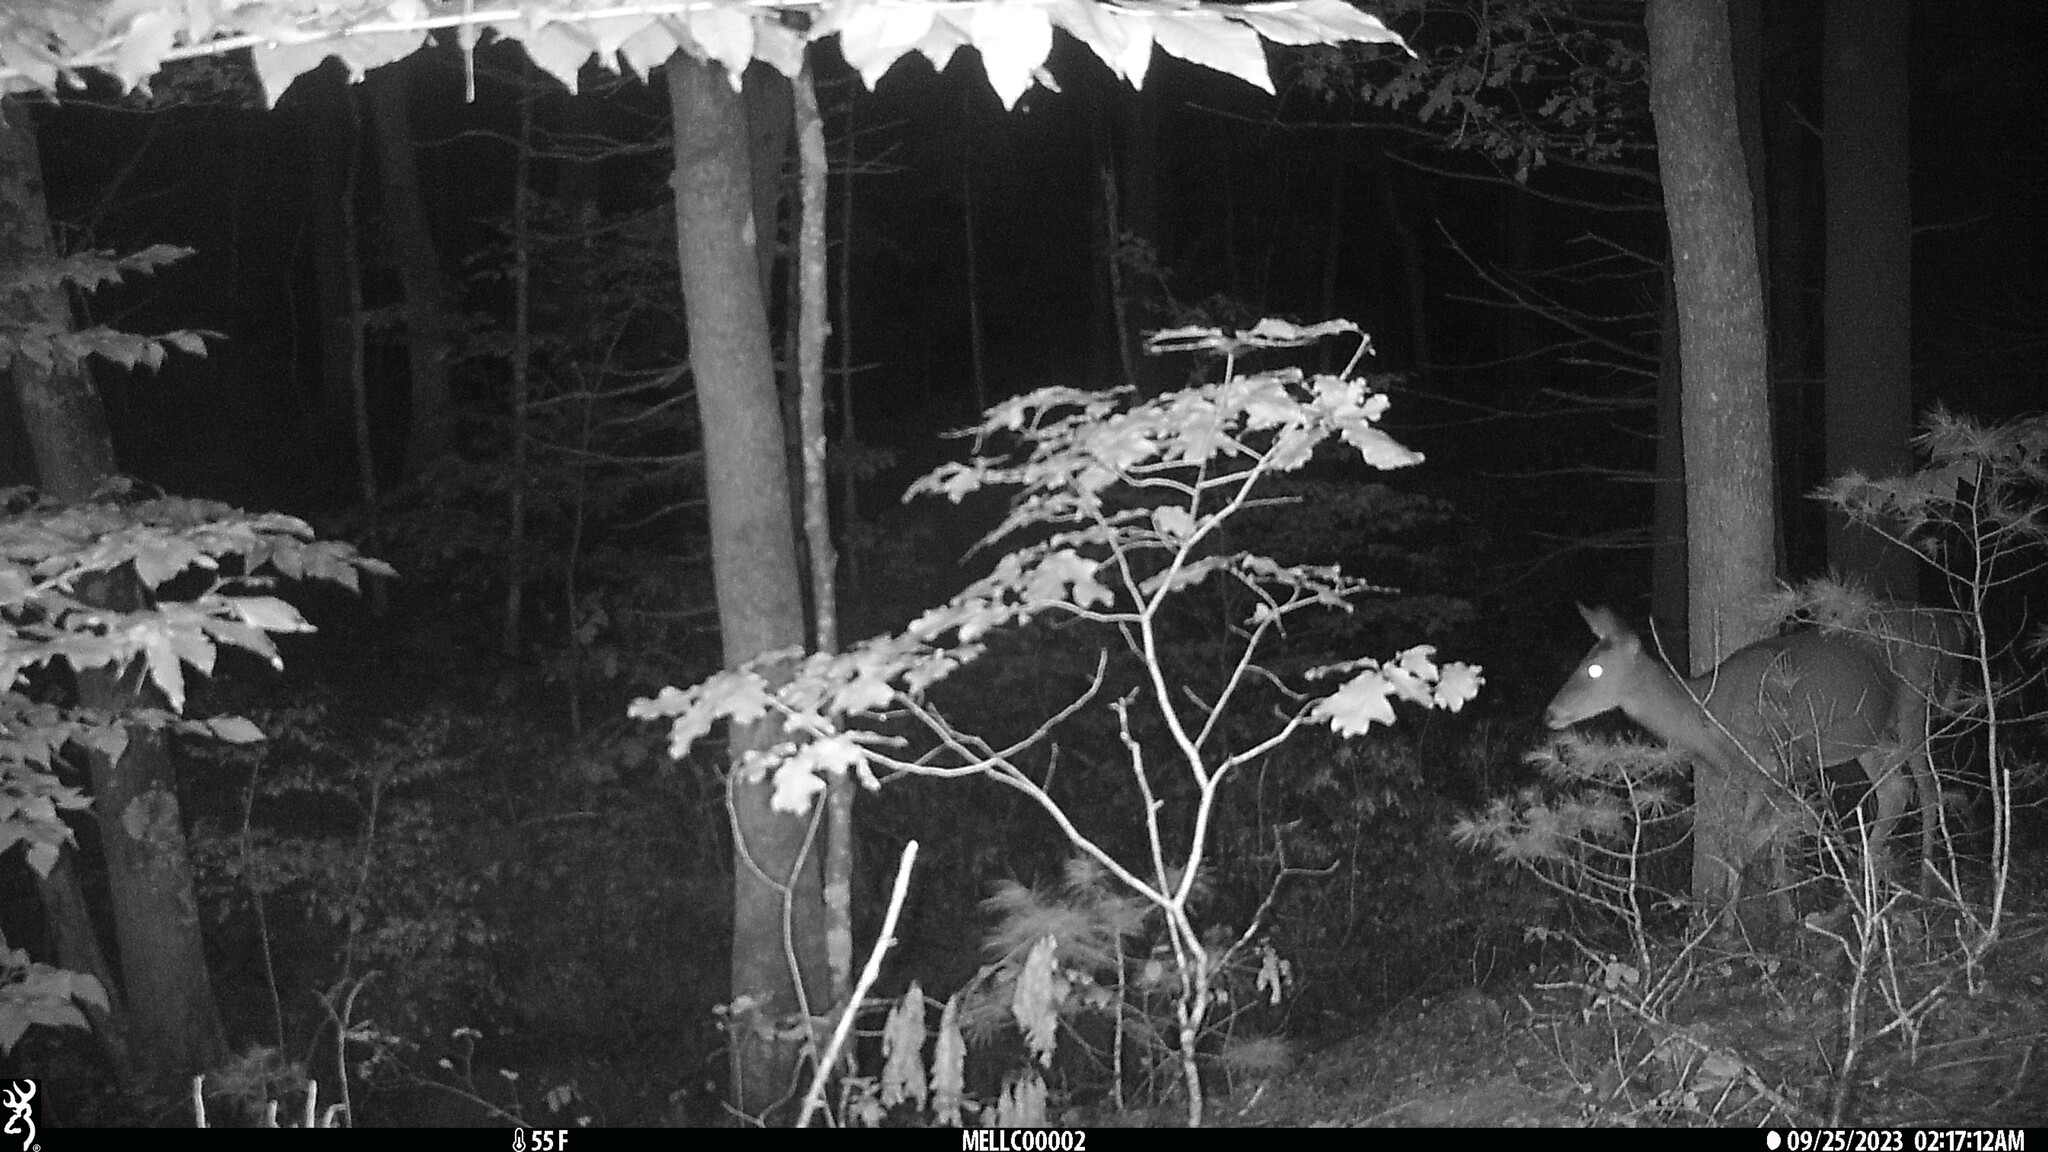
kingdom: Animalia
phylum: Chordata
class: Mammalia
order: Artiodactyla
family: Cervidae
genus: Odocoileus
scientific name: Odocoileus virginianus
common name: White-tailed deer
